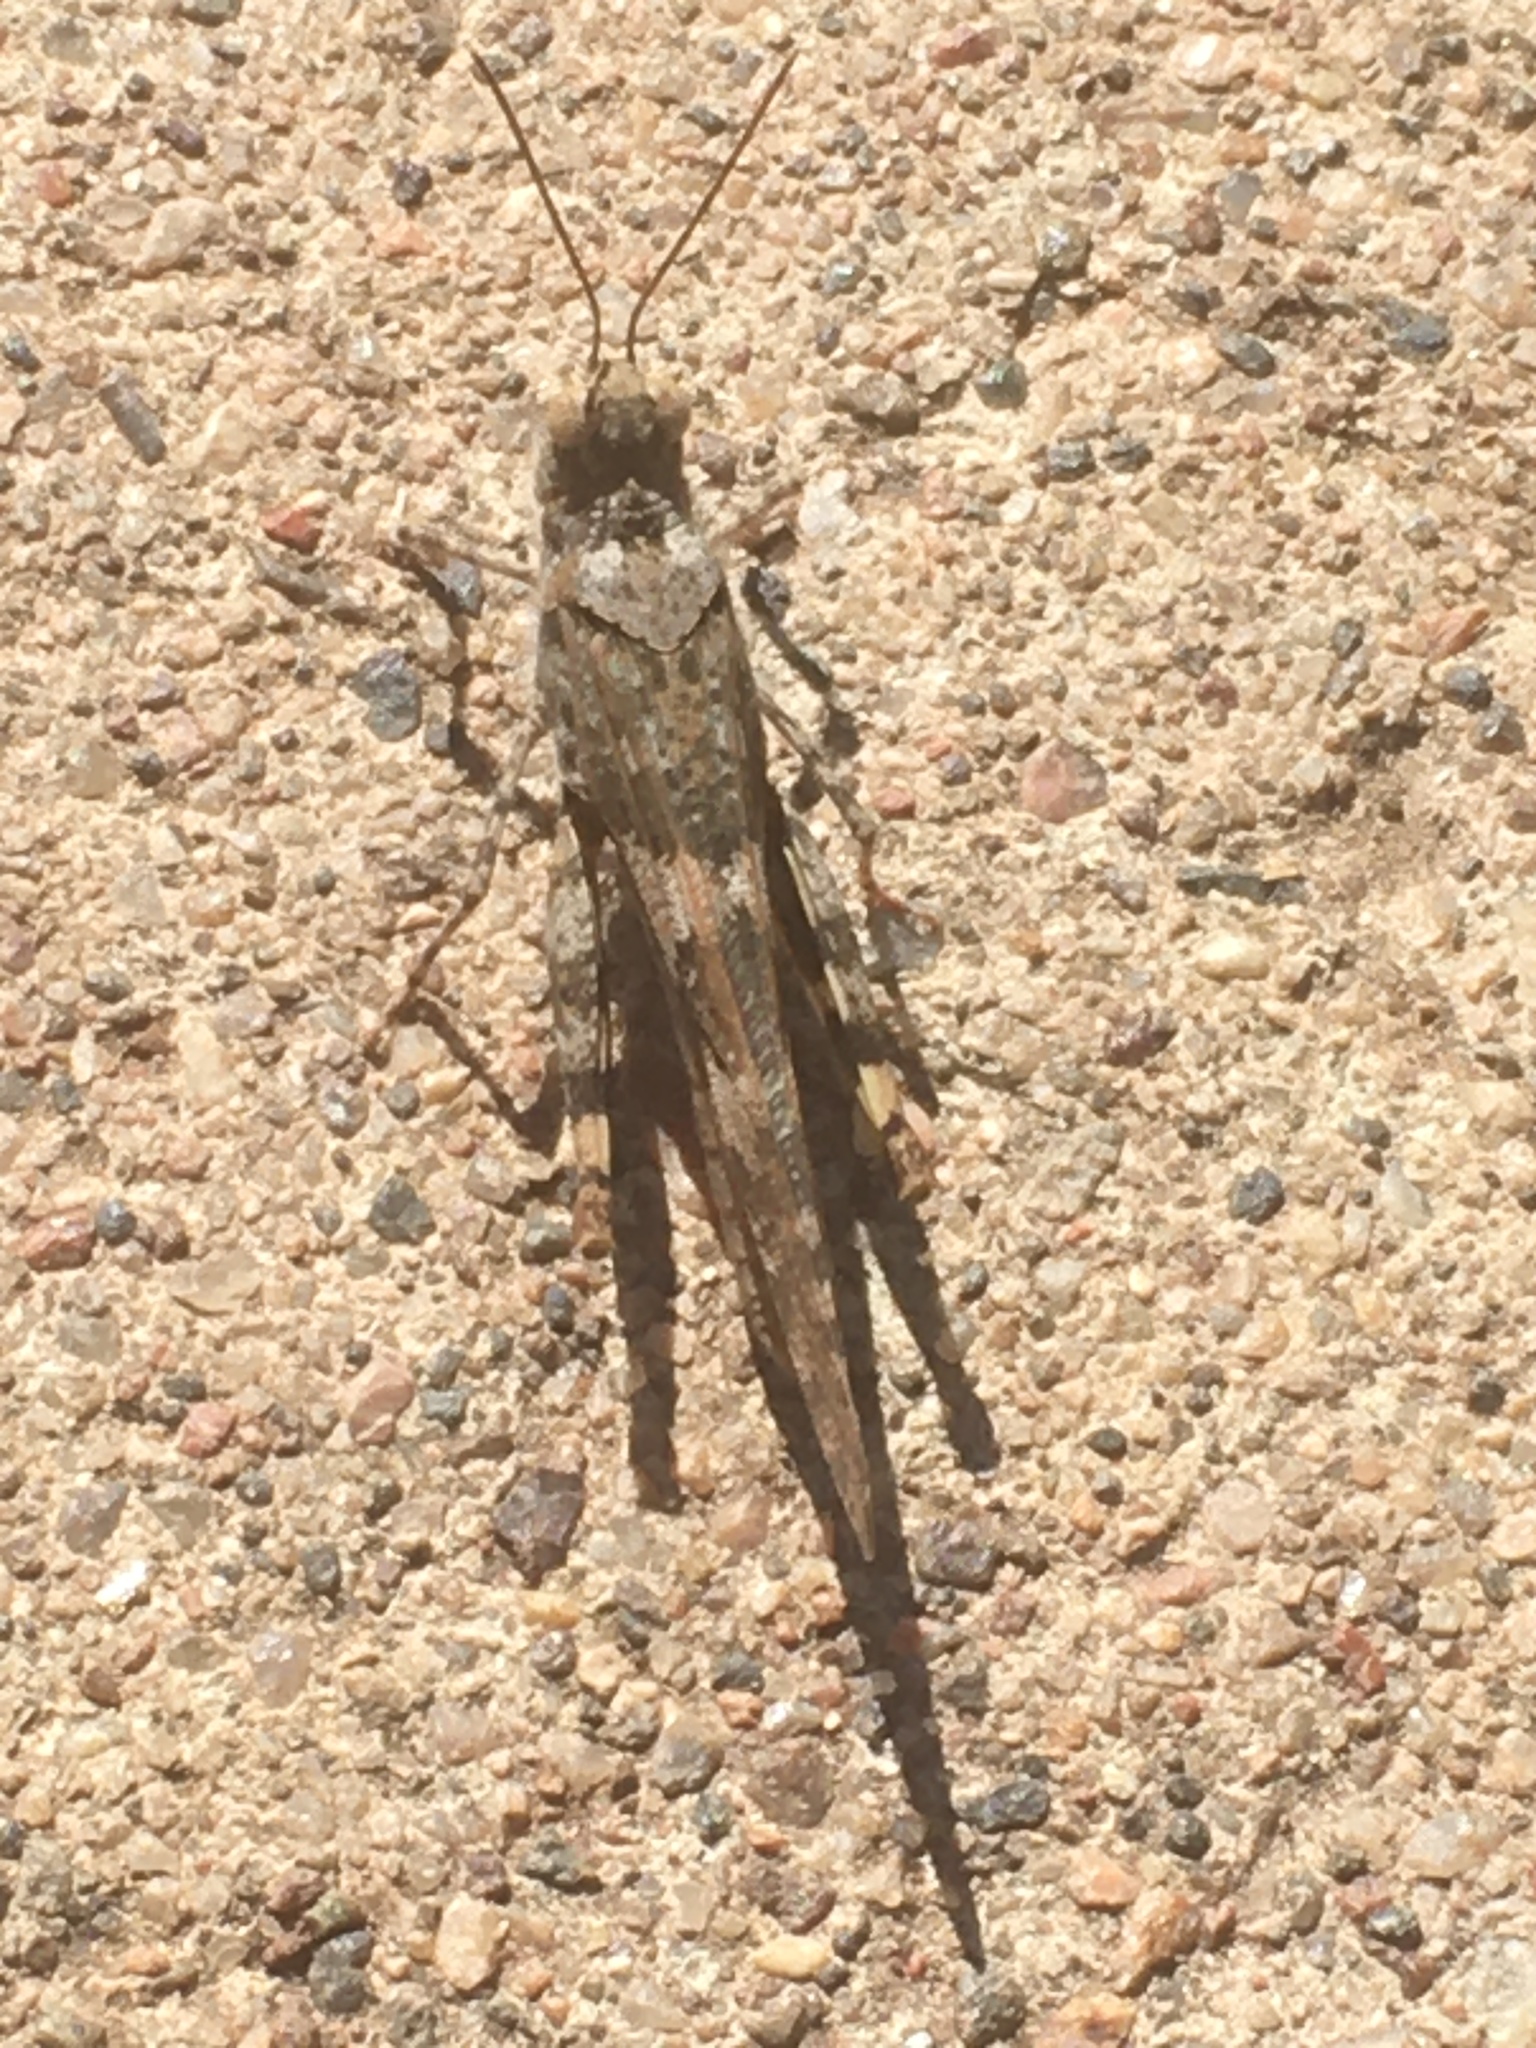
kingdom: Animalia
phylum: Arthropoda
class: Insecta
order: Orthoptera
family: Acrididae
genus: Trimerotropis
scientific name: Trimerotropis pallidipennis
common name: Pallid-winged grasshopper
